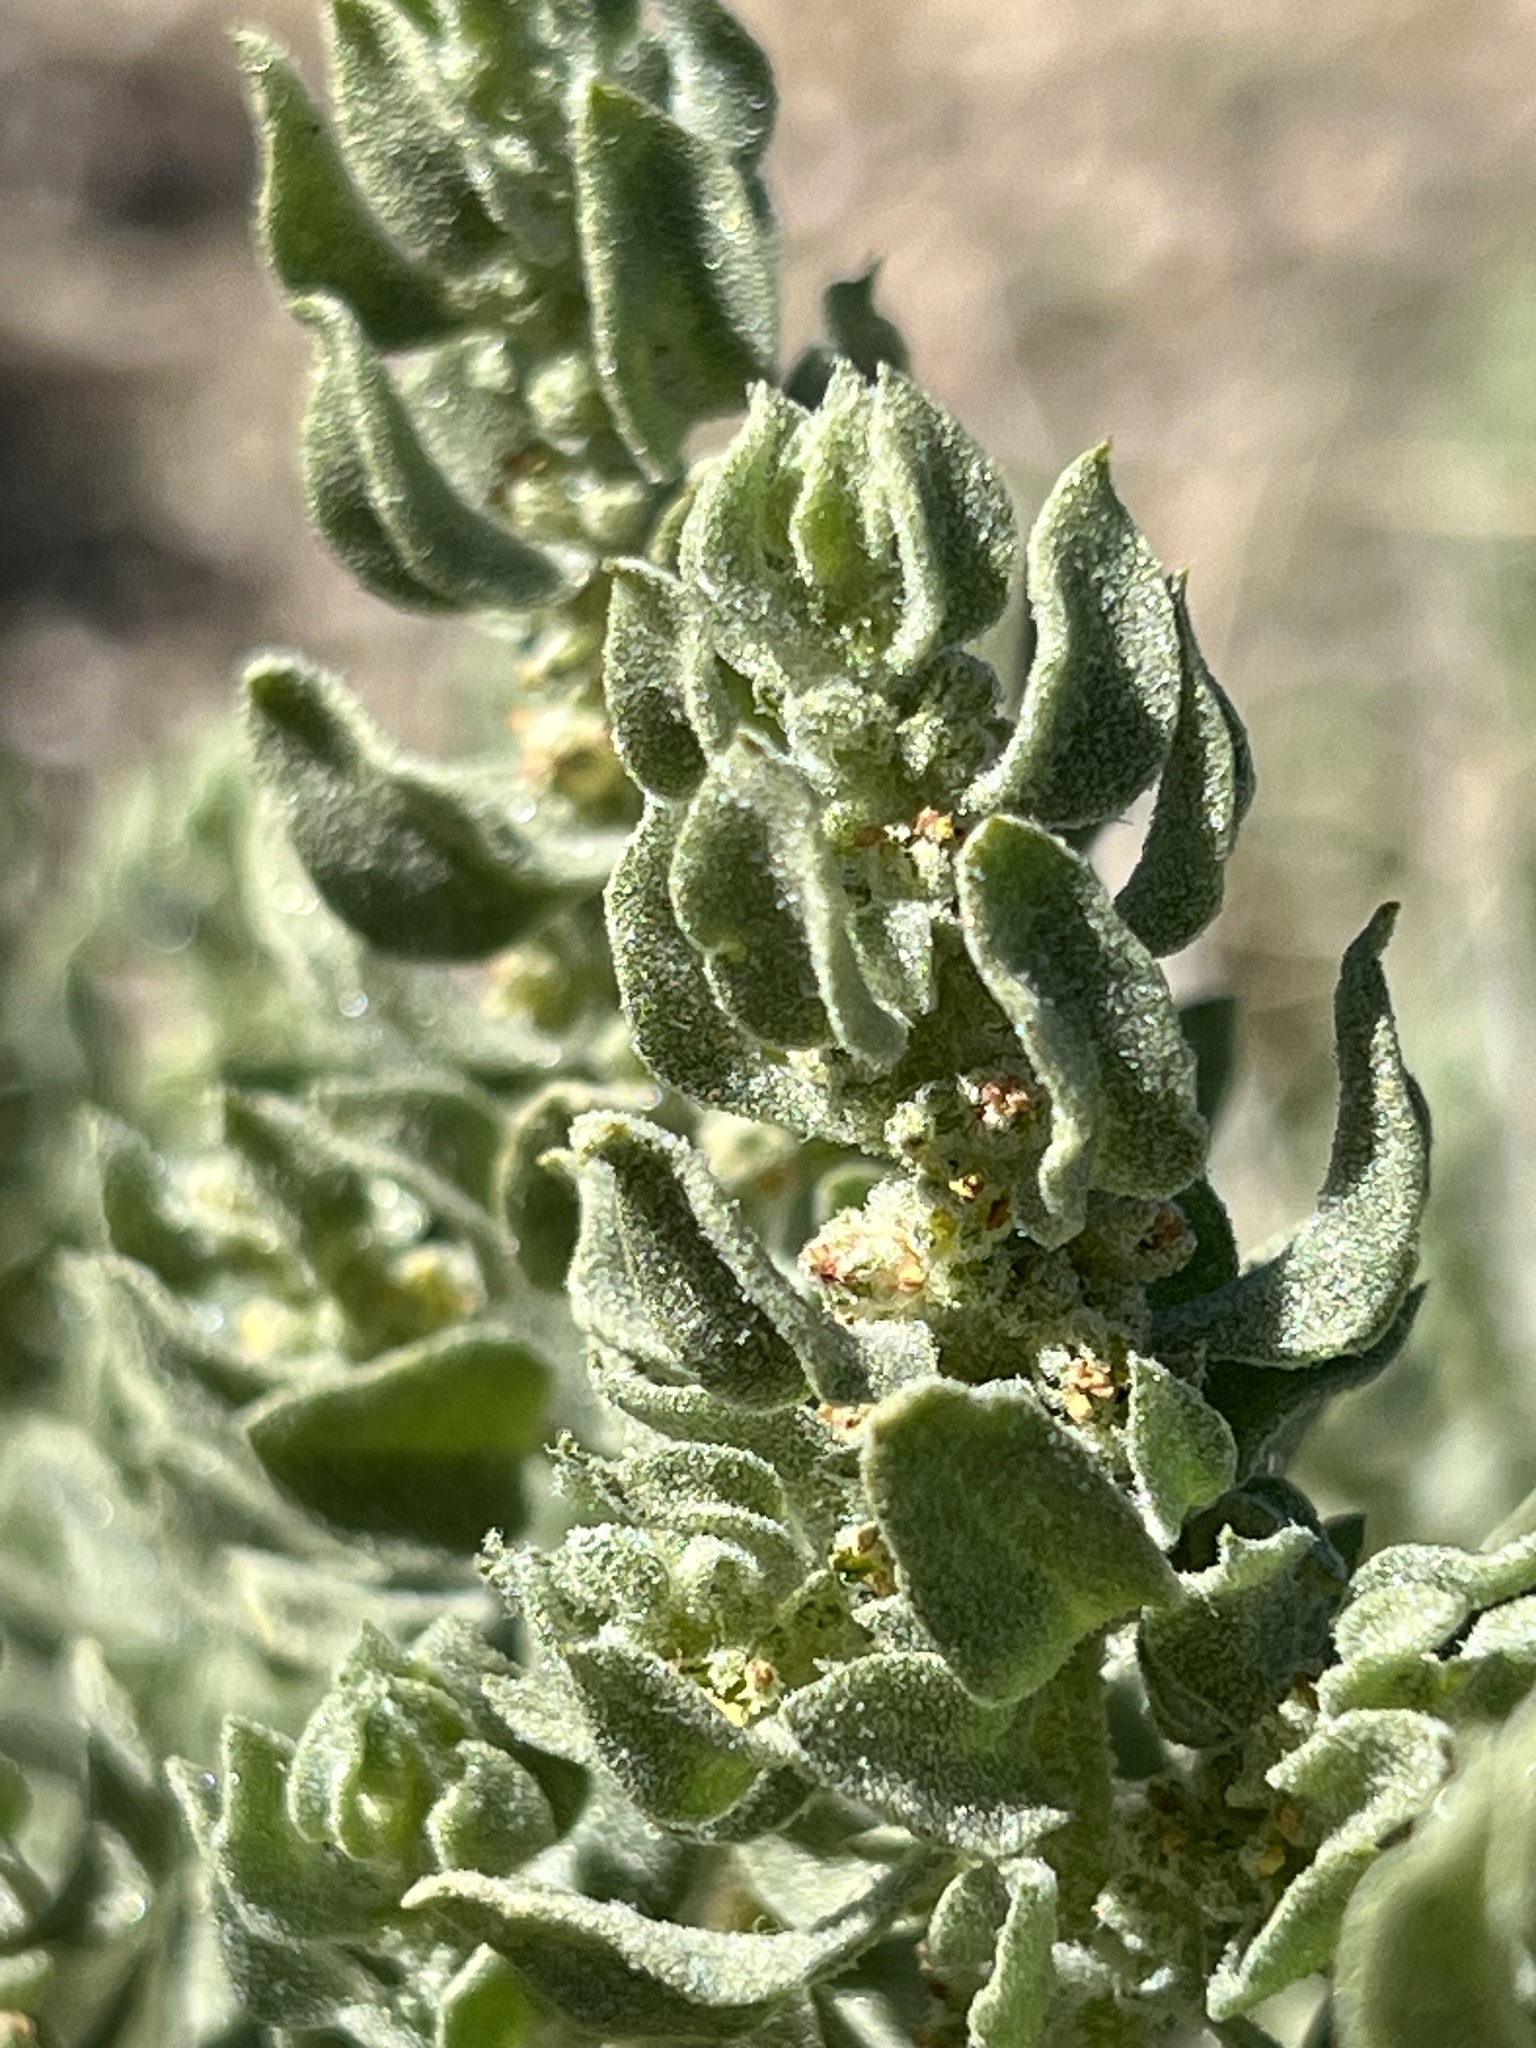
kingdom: Plantae
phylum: Tracheophyta
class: Magnoliopsida
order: Caryophyllales
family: Amaranthaceae
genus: Atriplex
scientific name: Atriplex confertifolia
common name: Shadscale
